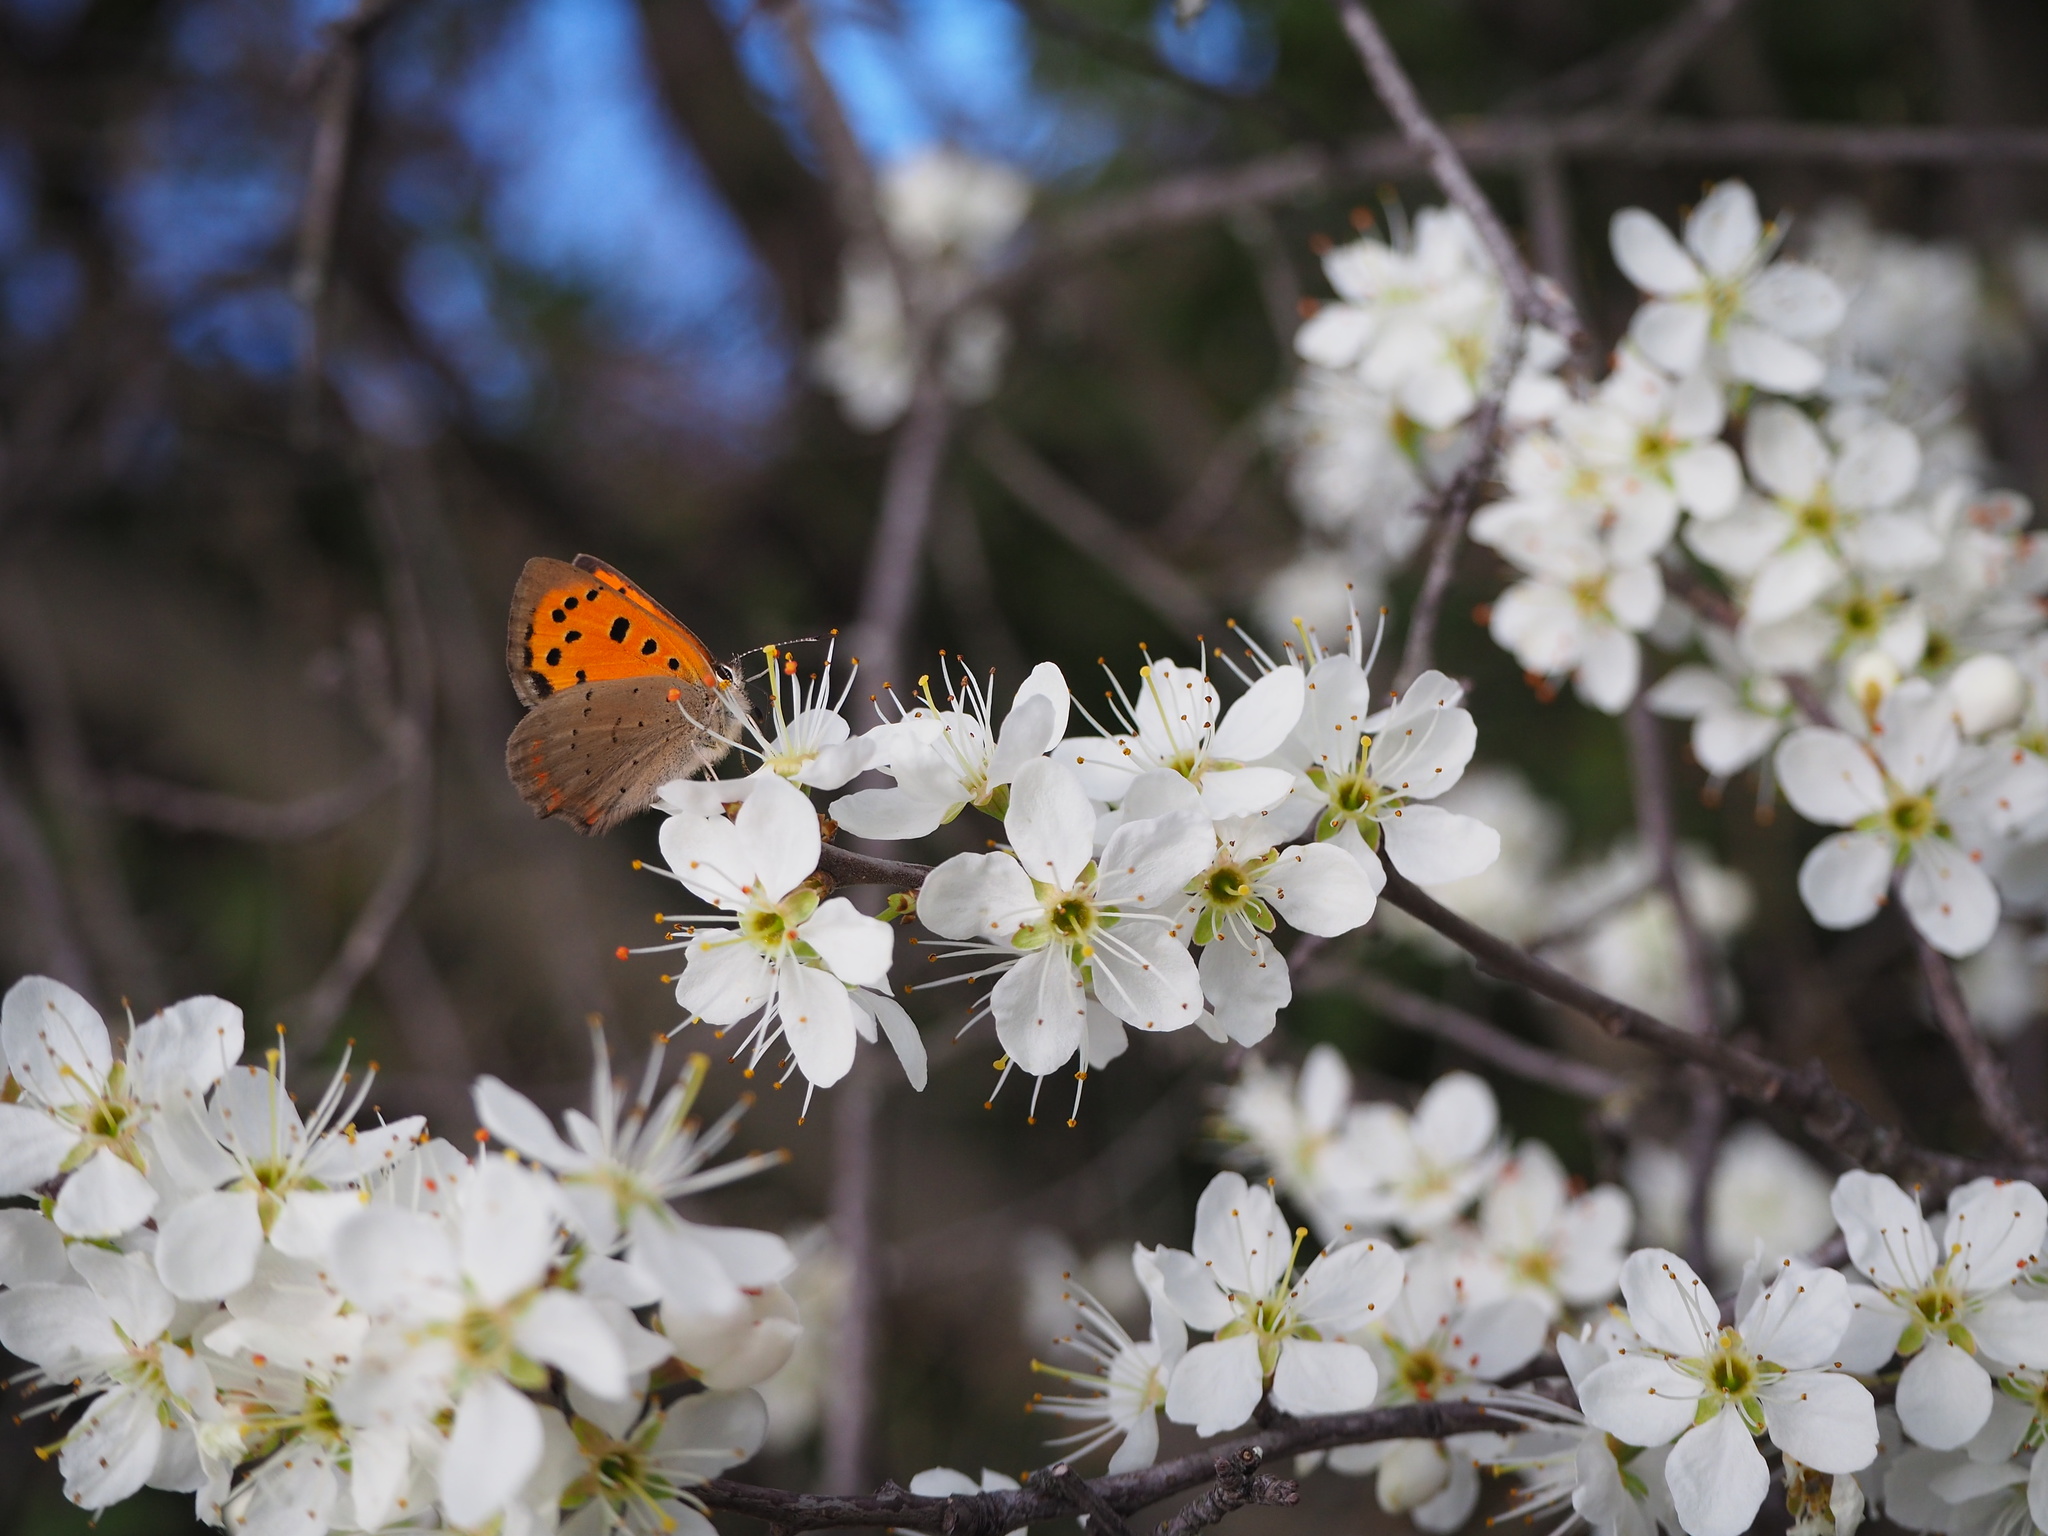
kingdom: Animalia
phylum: Arthropoda
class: Insecta
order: Lepidoptera
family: Lycaenidae
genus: Lycaena
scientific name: Lycaena phlaeas
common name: Small copper
